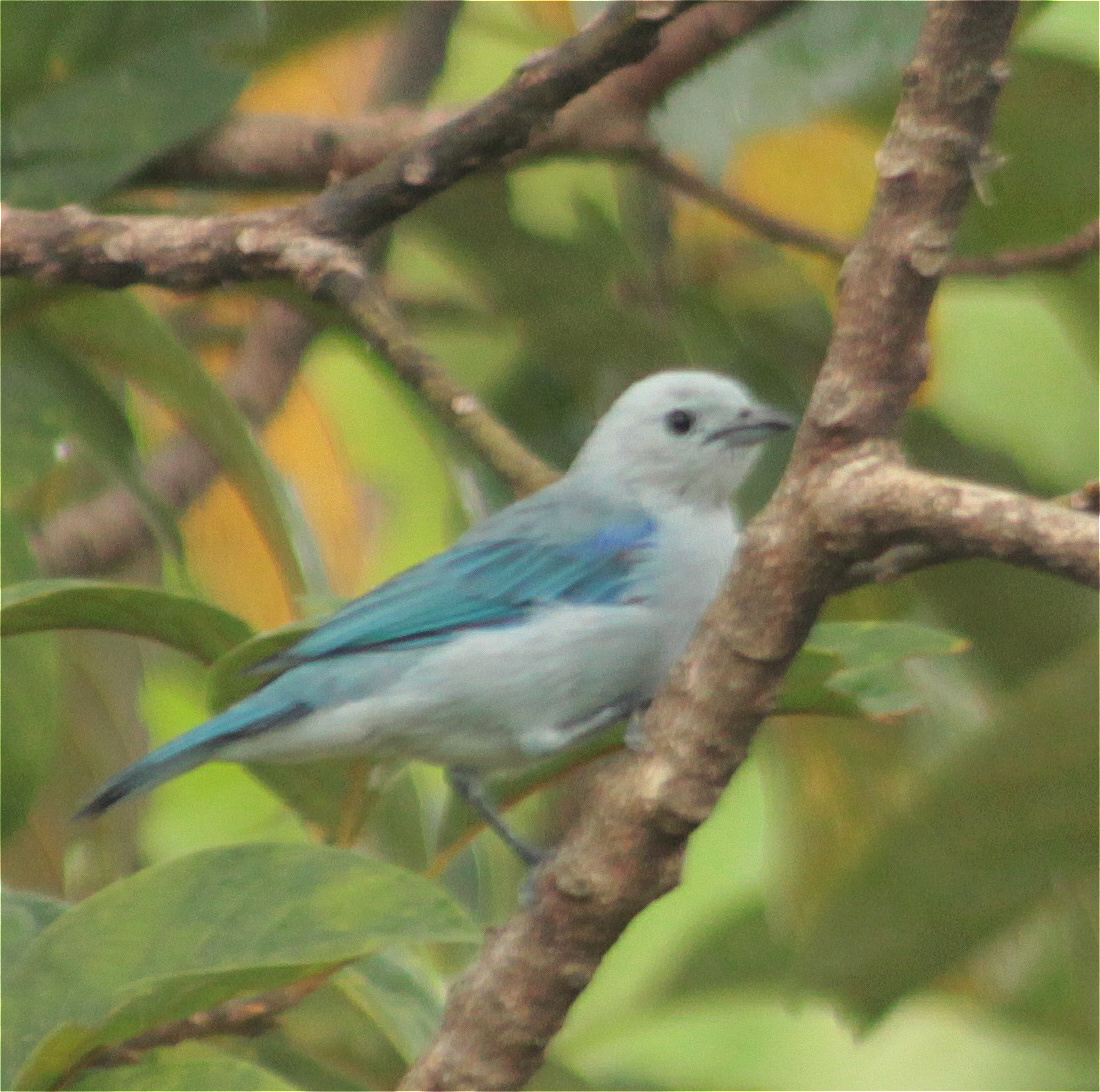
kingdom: Animalia
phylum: Chordata
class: Aves
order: Passeriformes
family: Thraupidae
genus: Thraupis
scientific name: Thraupis episcopus
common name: Blue-grey tanager
